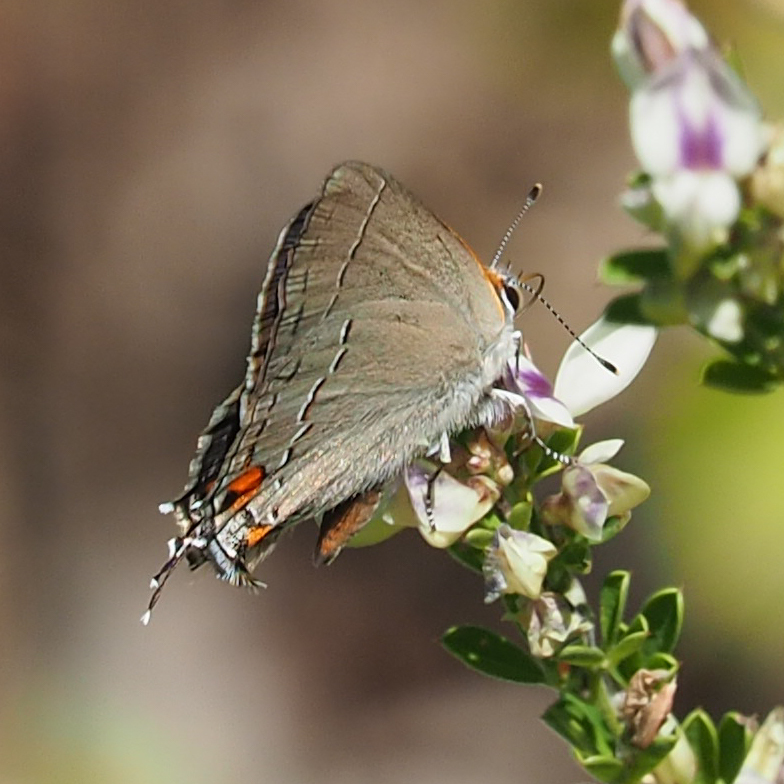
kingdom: Animalia
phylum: Arthropoda
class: Insecta
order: Lepidoptera
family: Lycaenidae
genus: Strymon
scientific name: Strymon melinus
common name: Gray hairstreak
